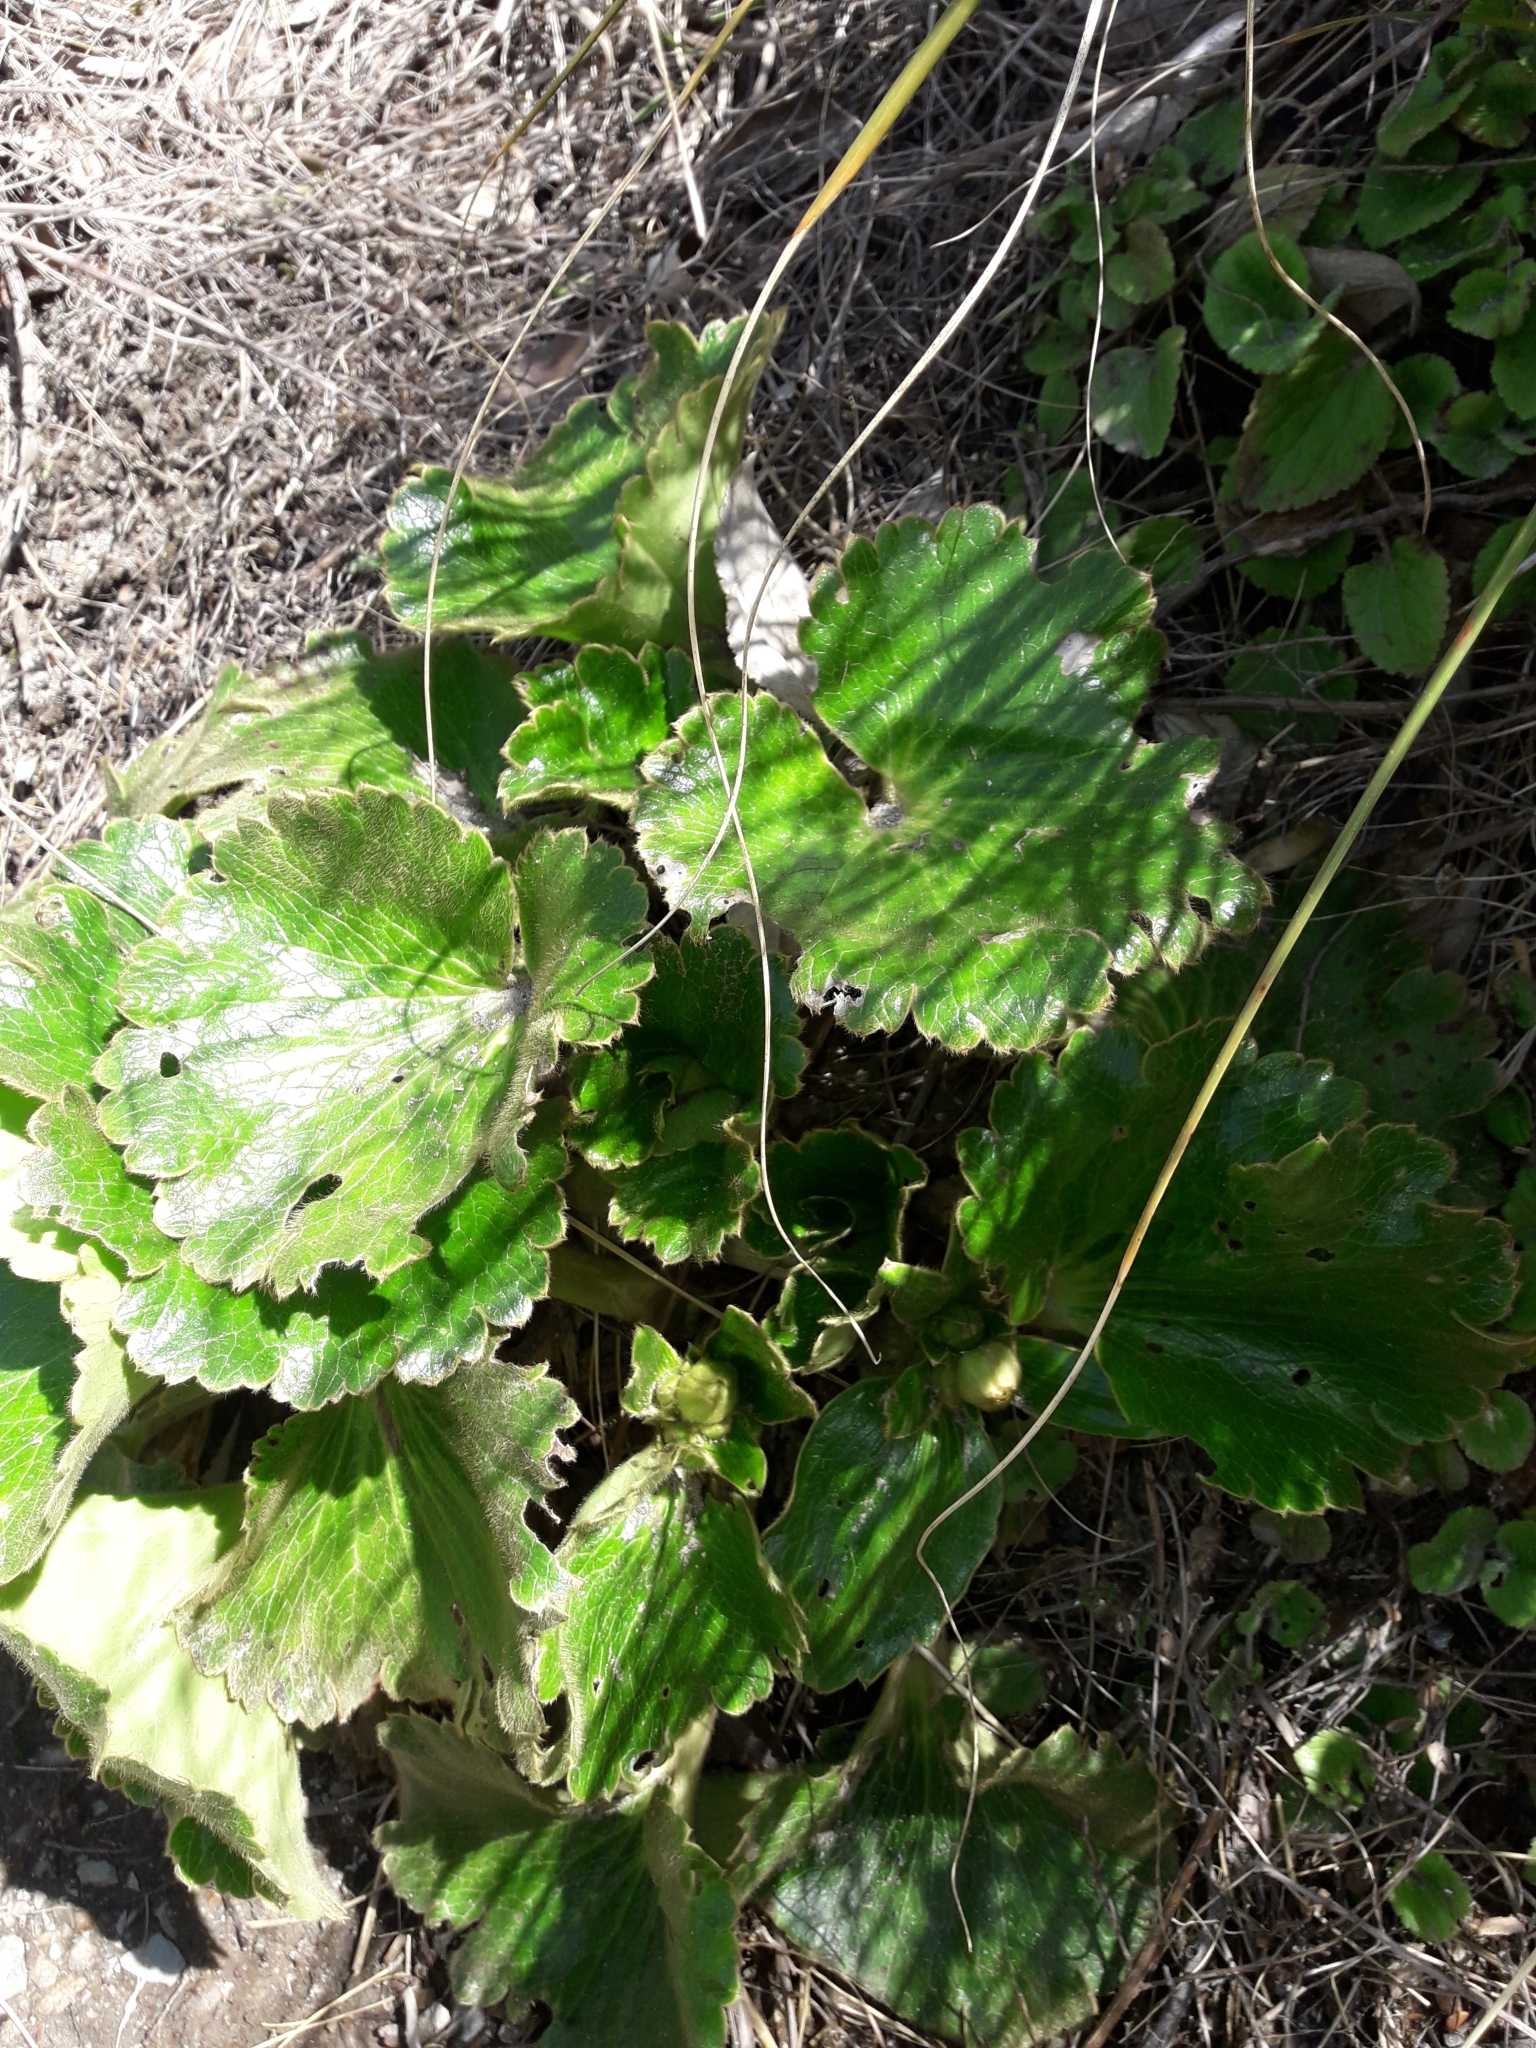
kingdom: Plantae
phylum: Tracheophyta
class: Magnoliopsida
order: Ranunculales
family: Ranunculaceae
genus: Ranunculus
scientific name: Ranunculus insignis
